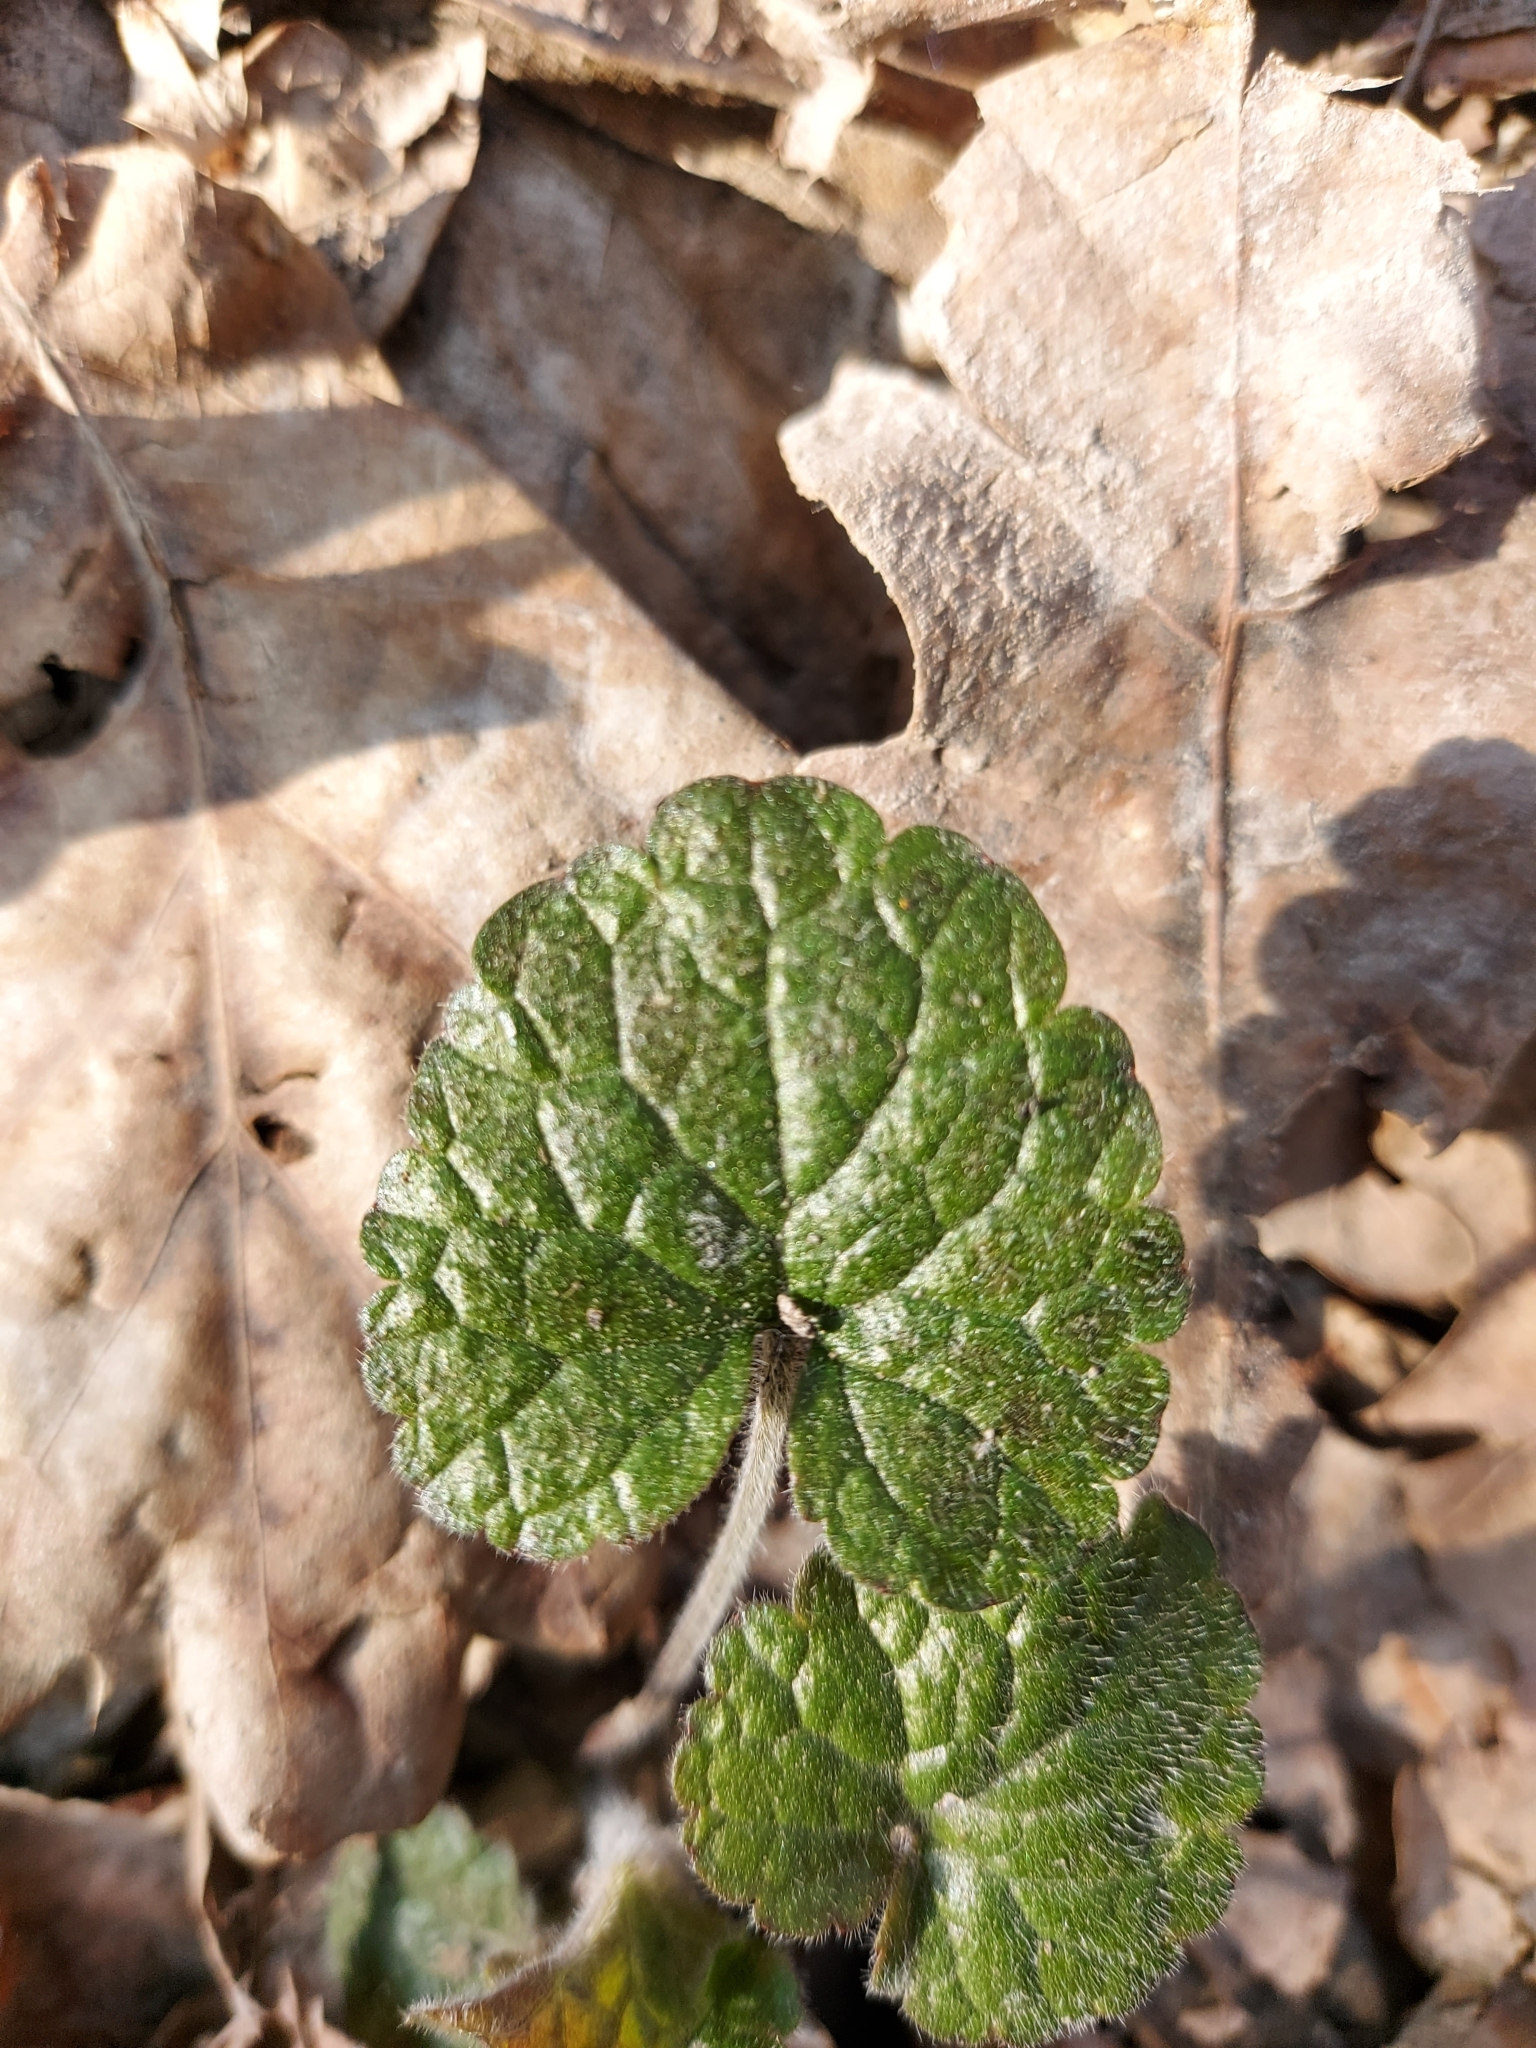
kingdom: Plantae
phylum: Tracheophyta
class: Magnoliopsida
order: Lamiales
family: Lamiaceae
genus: Glechoma
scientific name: Glechoma hirsuta
